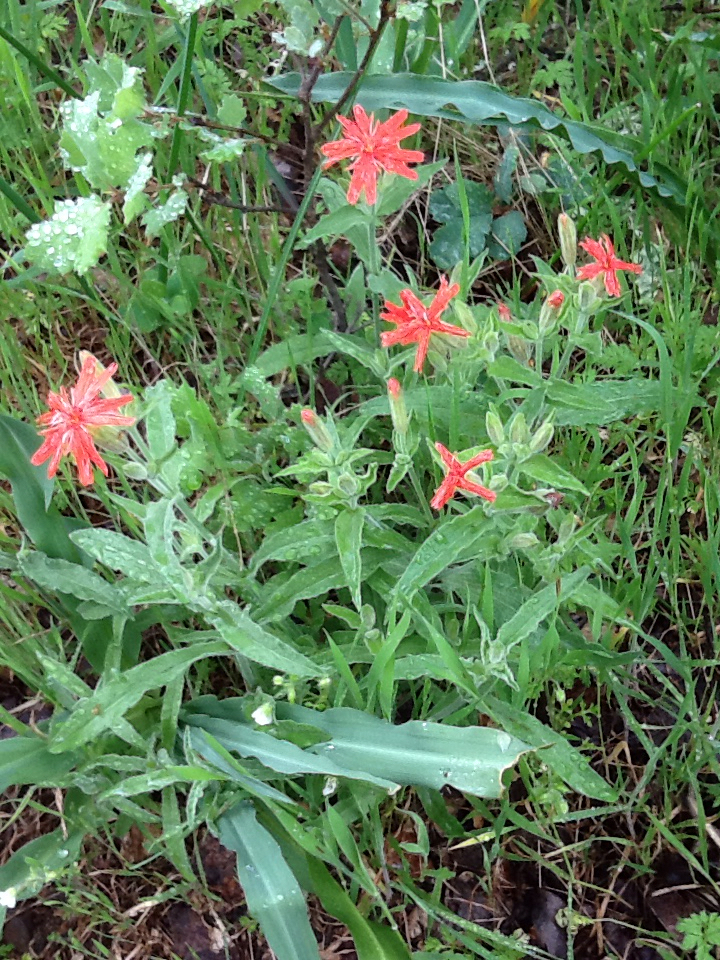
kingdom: Plantae
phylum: Tracheophyta
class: Magnoliopsida
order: Caryophyllales
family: Caryophyllaceae
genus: Silene
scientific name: Silene laciniata
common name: Indian-pink
